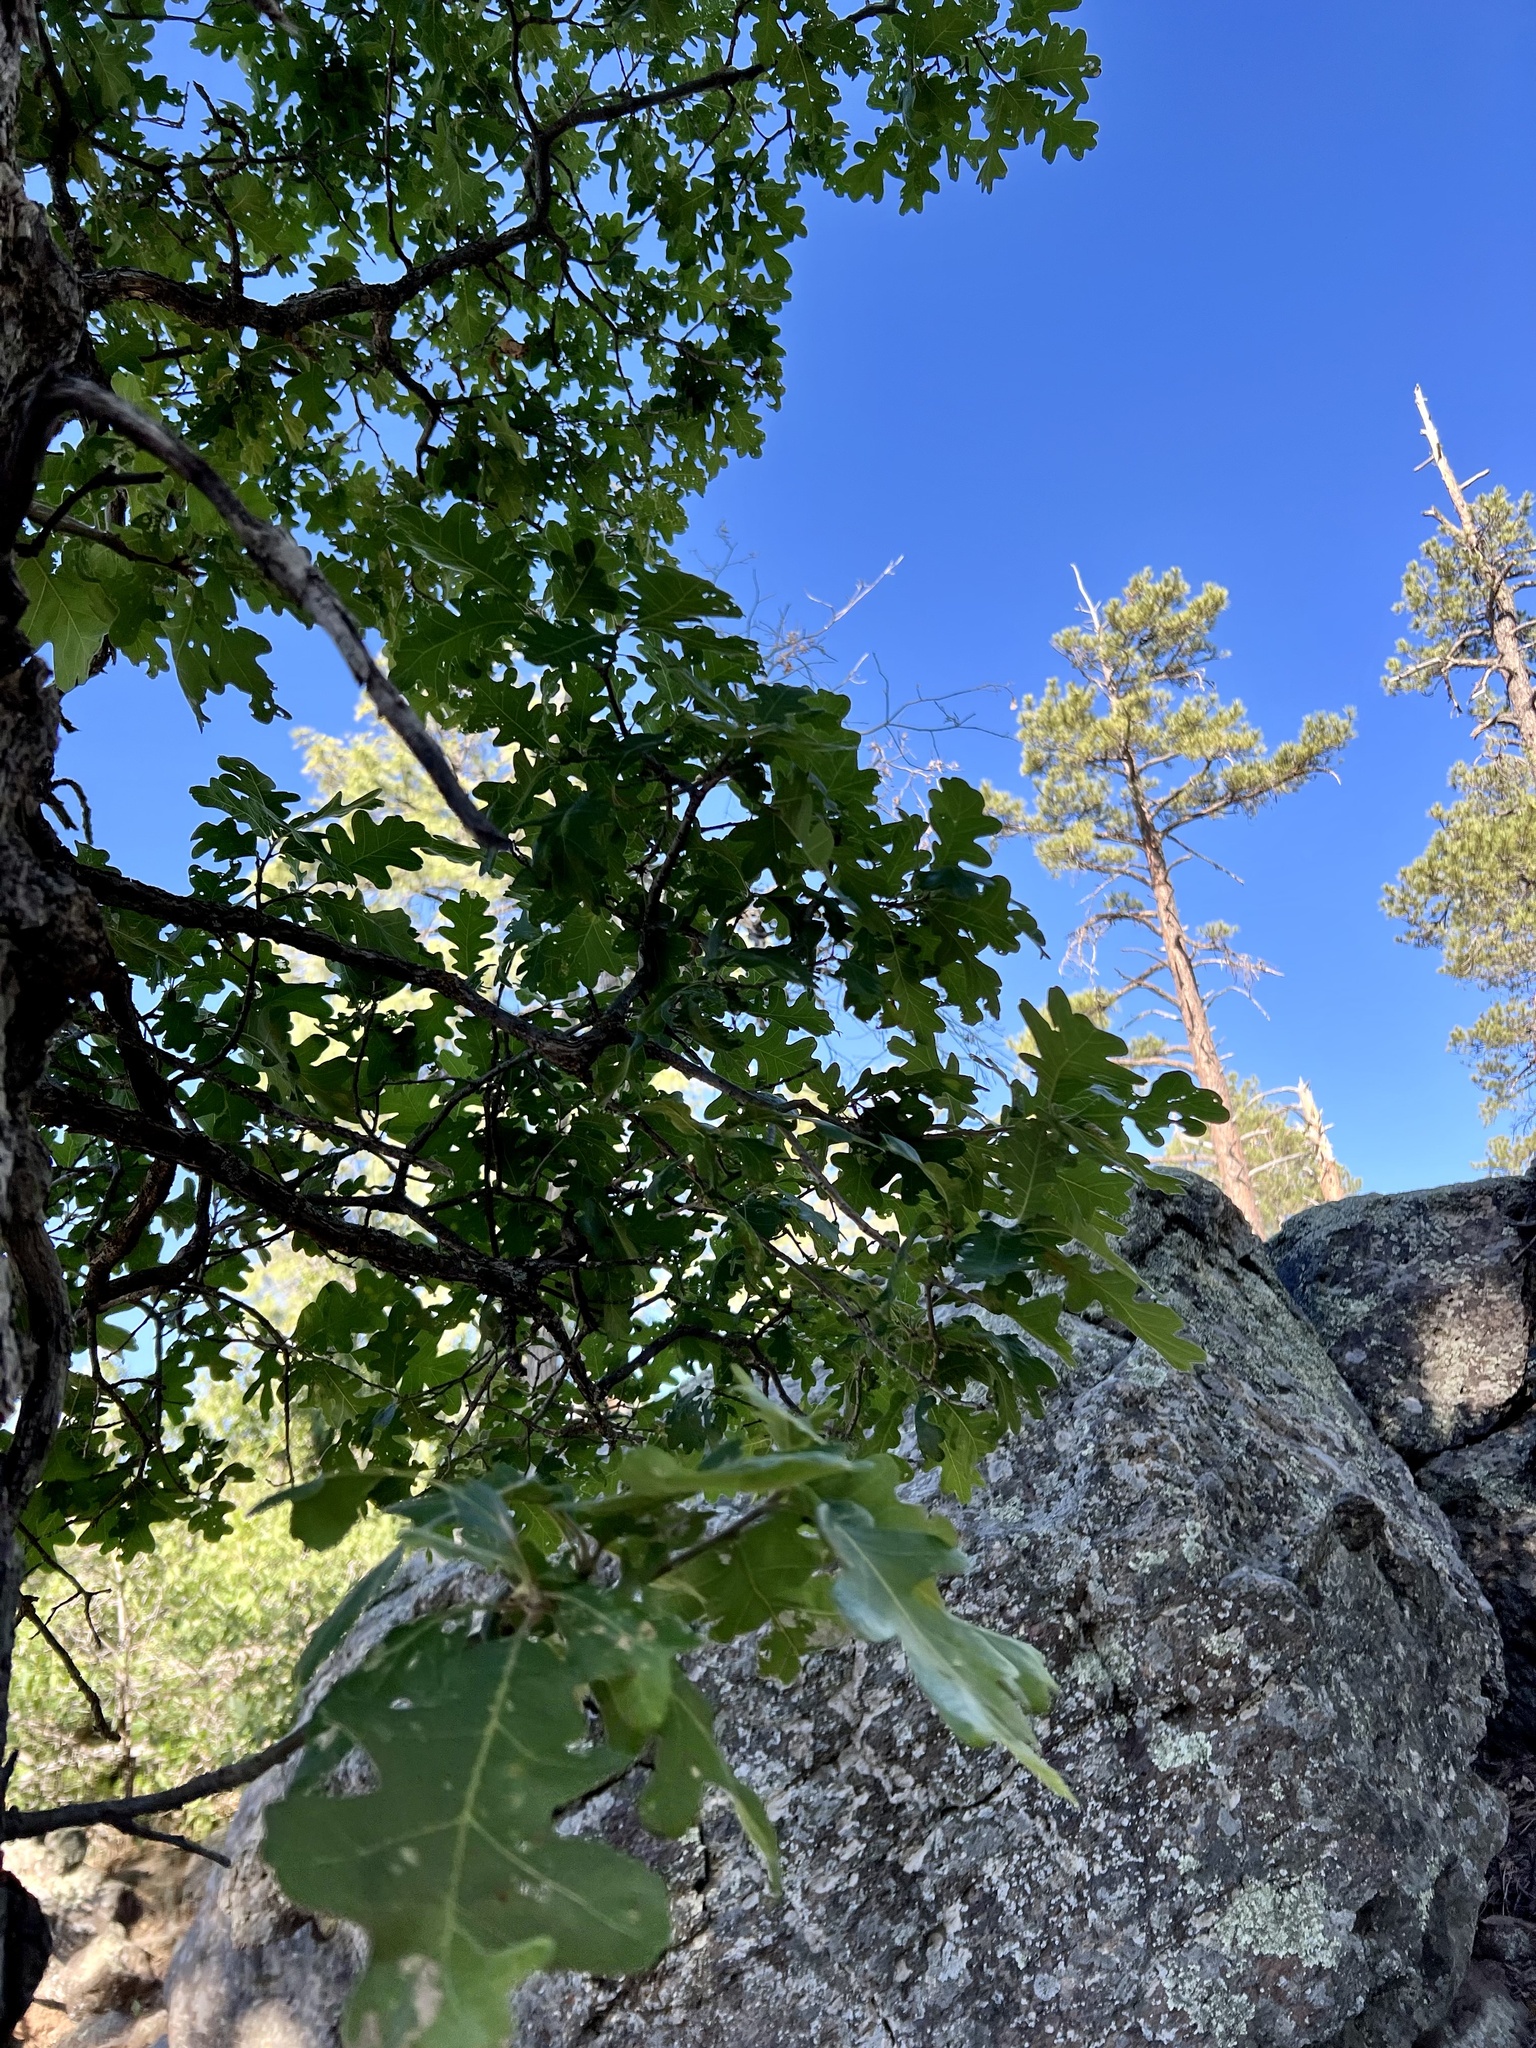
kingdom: Plantae
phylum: Tracheophyta
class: Magnoliopsida
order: Fagales
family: Fagaceae
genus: Quercus
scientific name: Quercus gambelii
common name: Gambel oak
